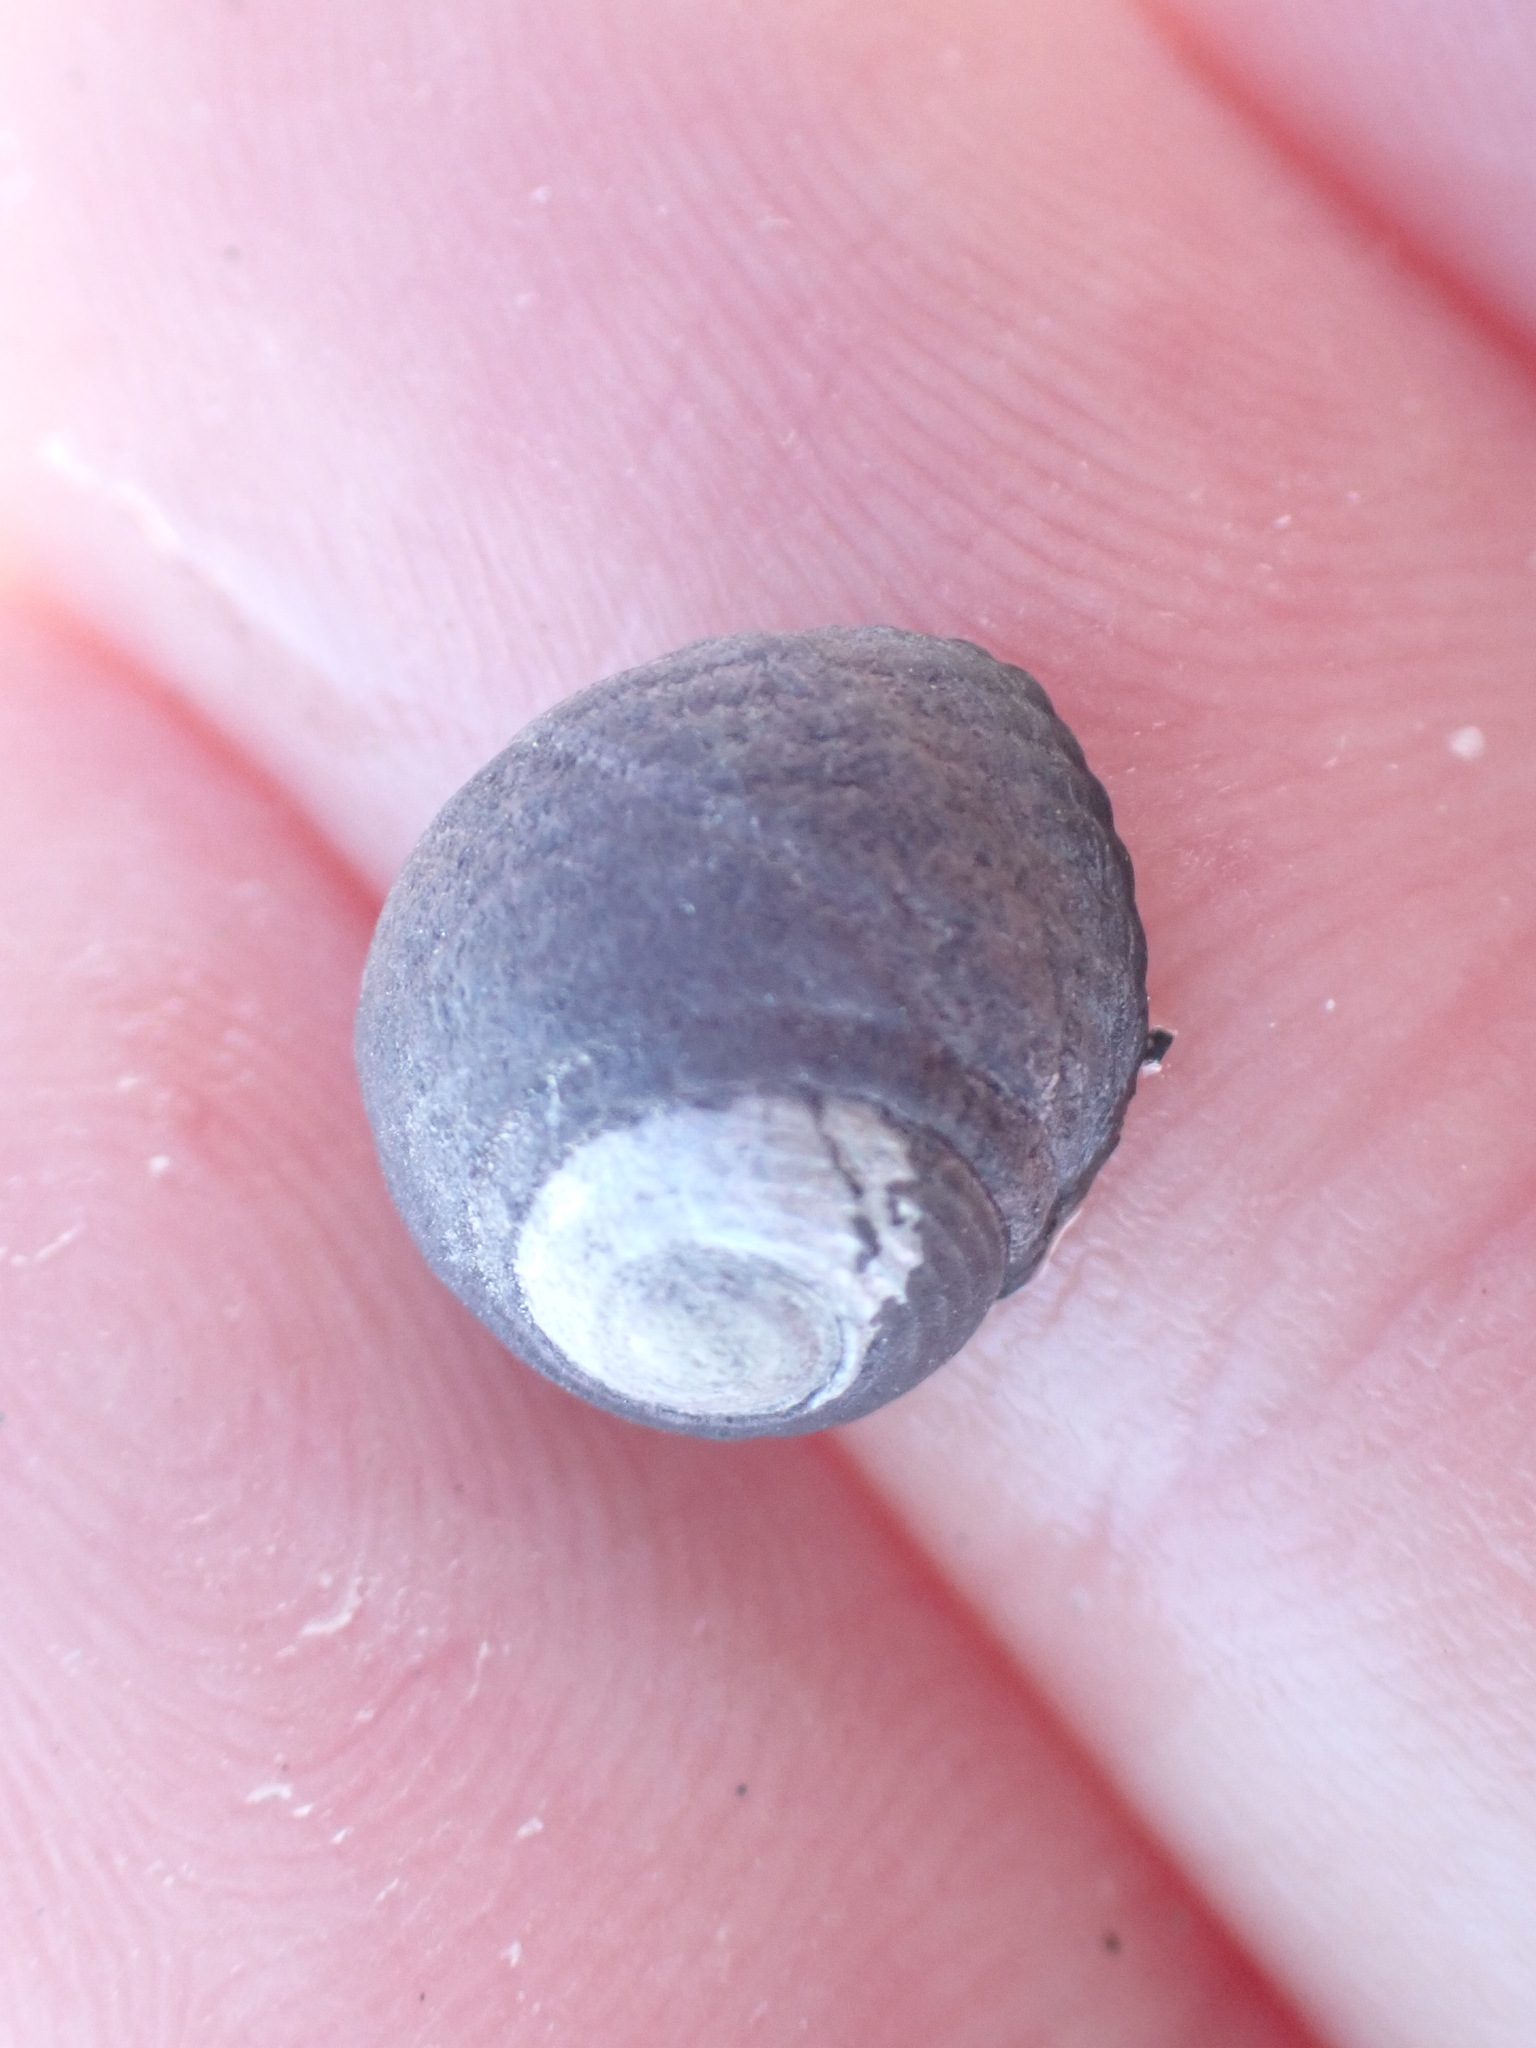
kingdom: Animalia
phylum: Mollusca
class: Gastropoda
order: Trochida
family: Trochidae
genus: Diloma
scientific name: Diloma aridum
